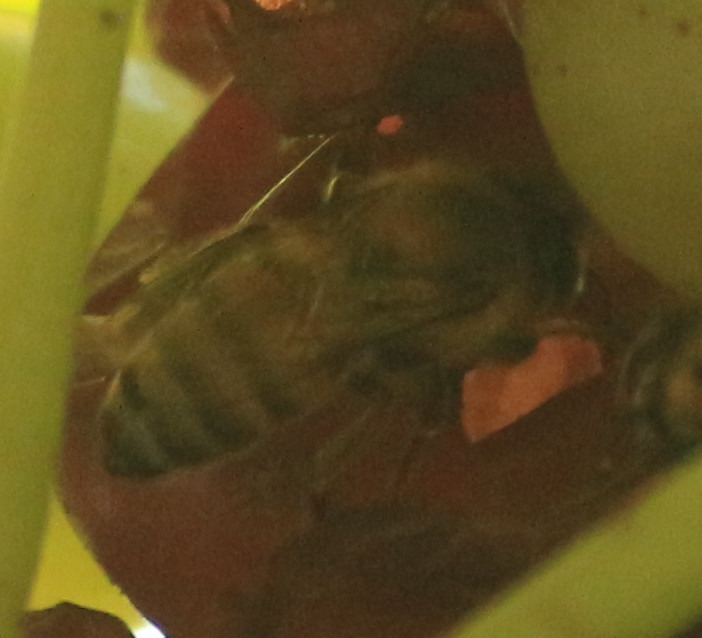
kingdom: Animalia
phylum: Arthropoda
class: Insecta
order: Hymenoptera
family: Apidae
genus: Apis
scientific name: Apis mellifera
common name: Honey bee
